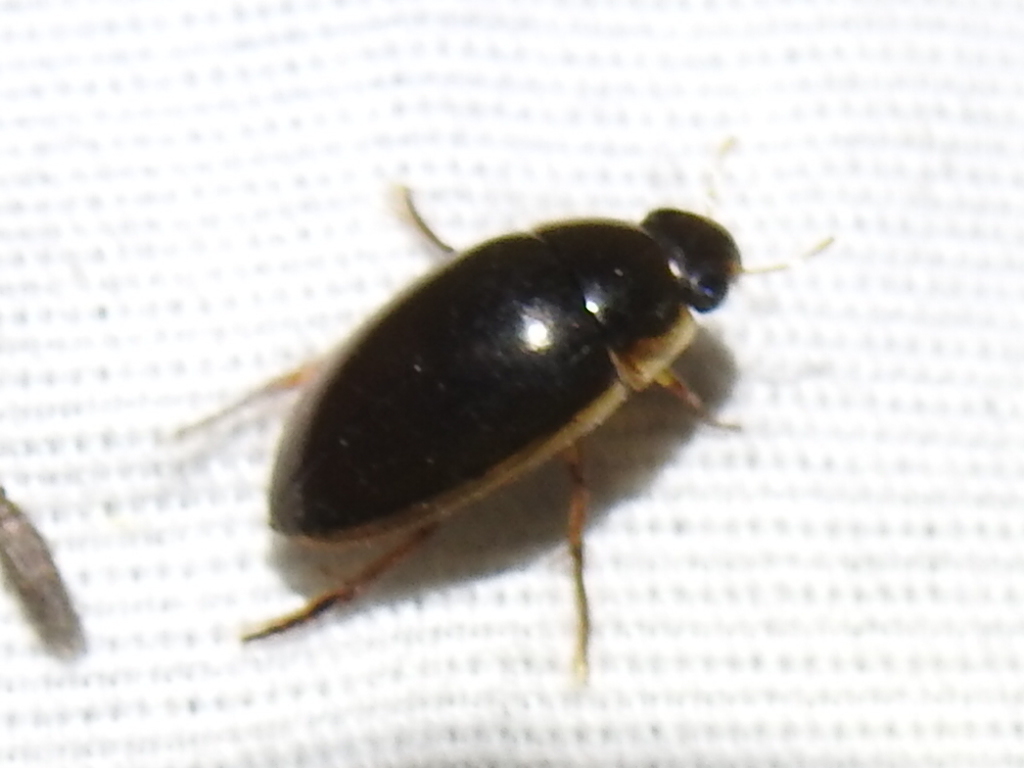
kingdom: Animalia
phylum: Arthropoda
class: Insecta
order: Coleoptera
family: Hydrophilidae
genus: Tropisternus
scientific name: Tropisternus lateralis
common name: Lateral-banded water scavenger beetle
